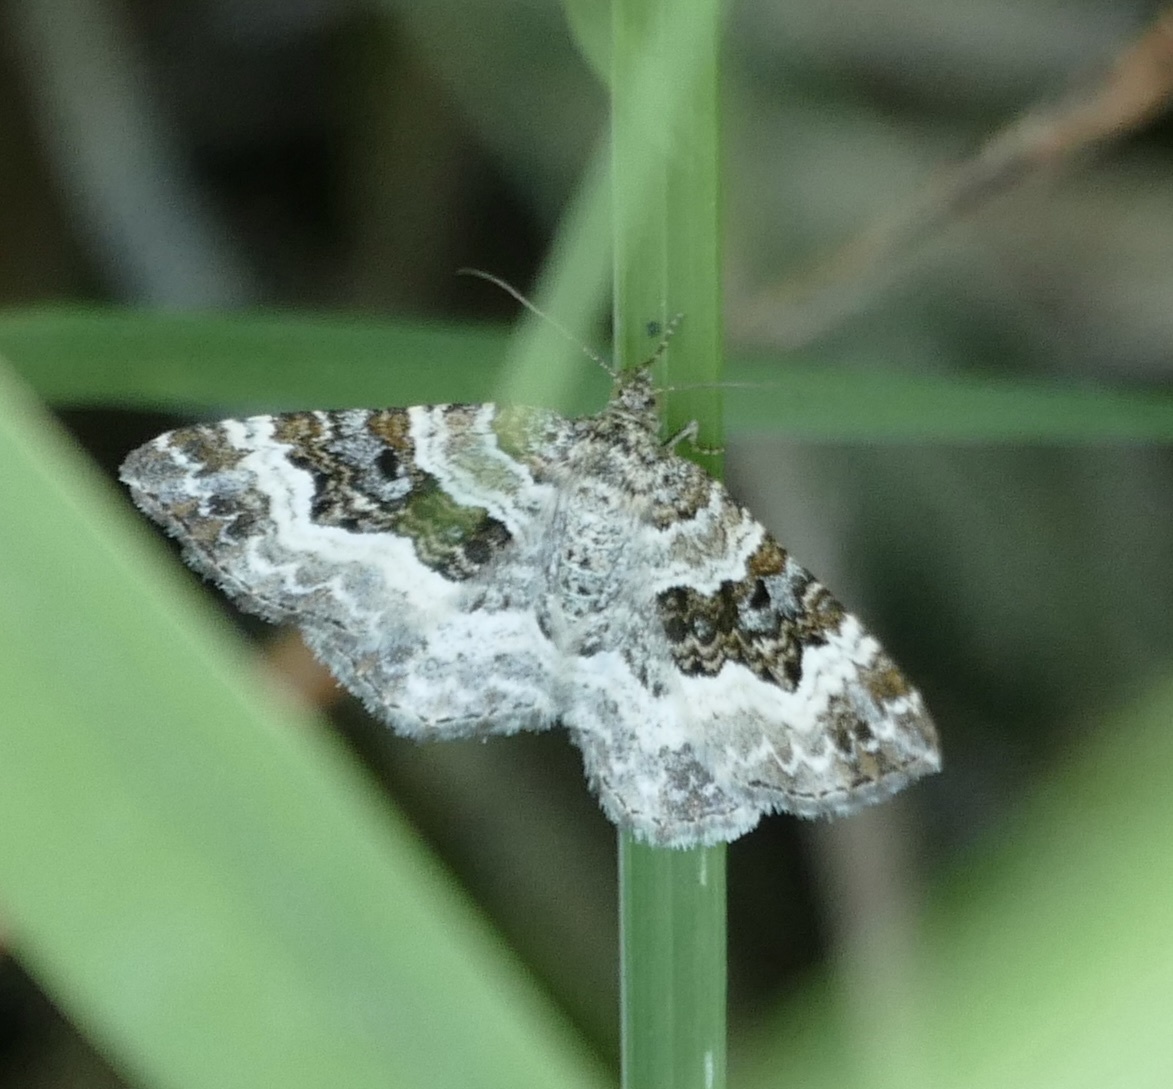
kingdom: Animalia
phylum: Arthropoda
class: Insecta
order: Lepidoptera
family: Geometridae
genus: Epirrhoe
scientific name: Epirrhoe alternata
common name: Common carpet
